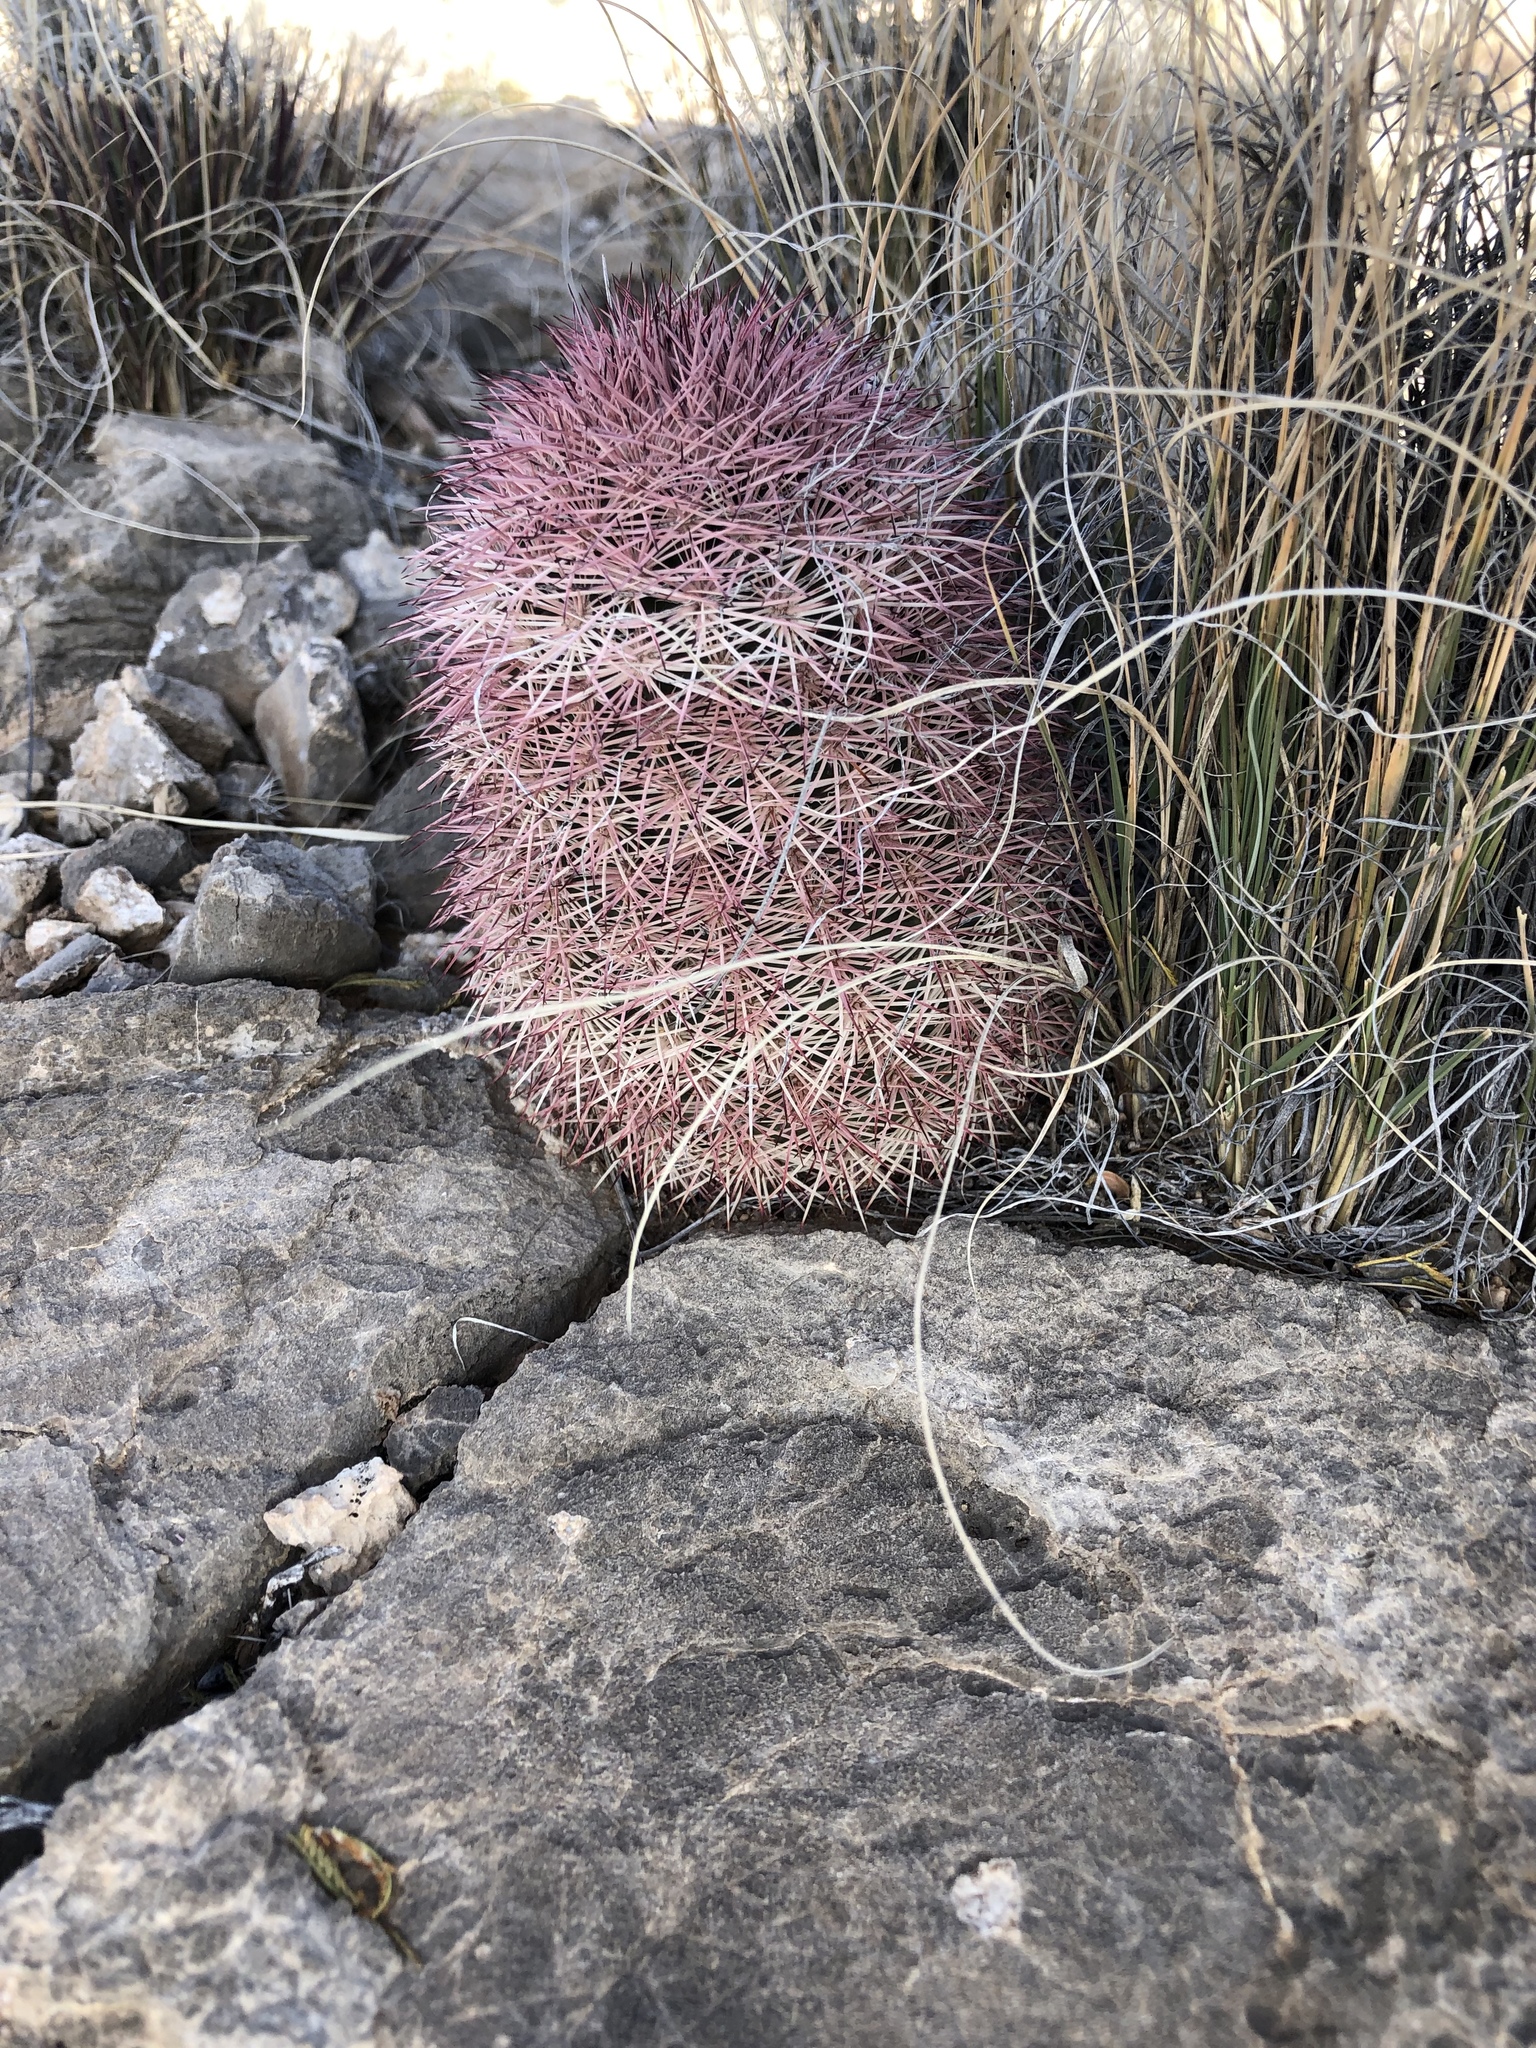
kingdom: Plantae
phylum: Tracheophyta
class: Magnoliopsida
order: Caryophyllales
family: Cactaceae
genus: Echinocereus
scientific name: Echinocereus dasyacanthus
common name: Spiny hedgehog cactus
